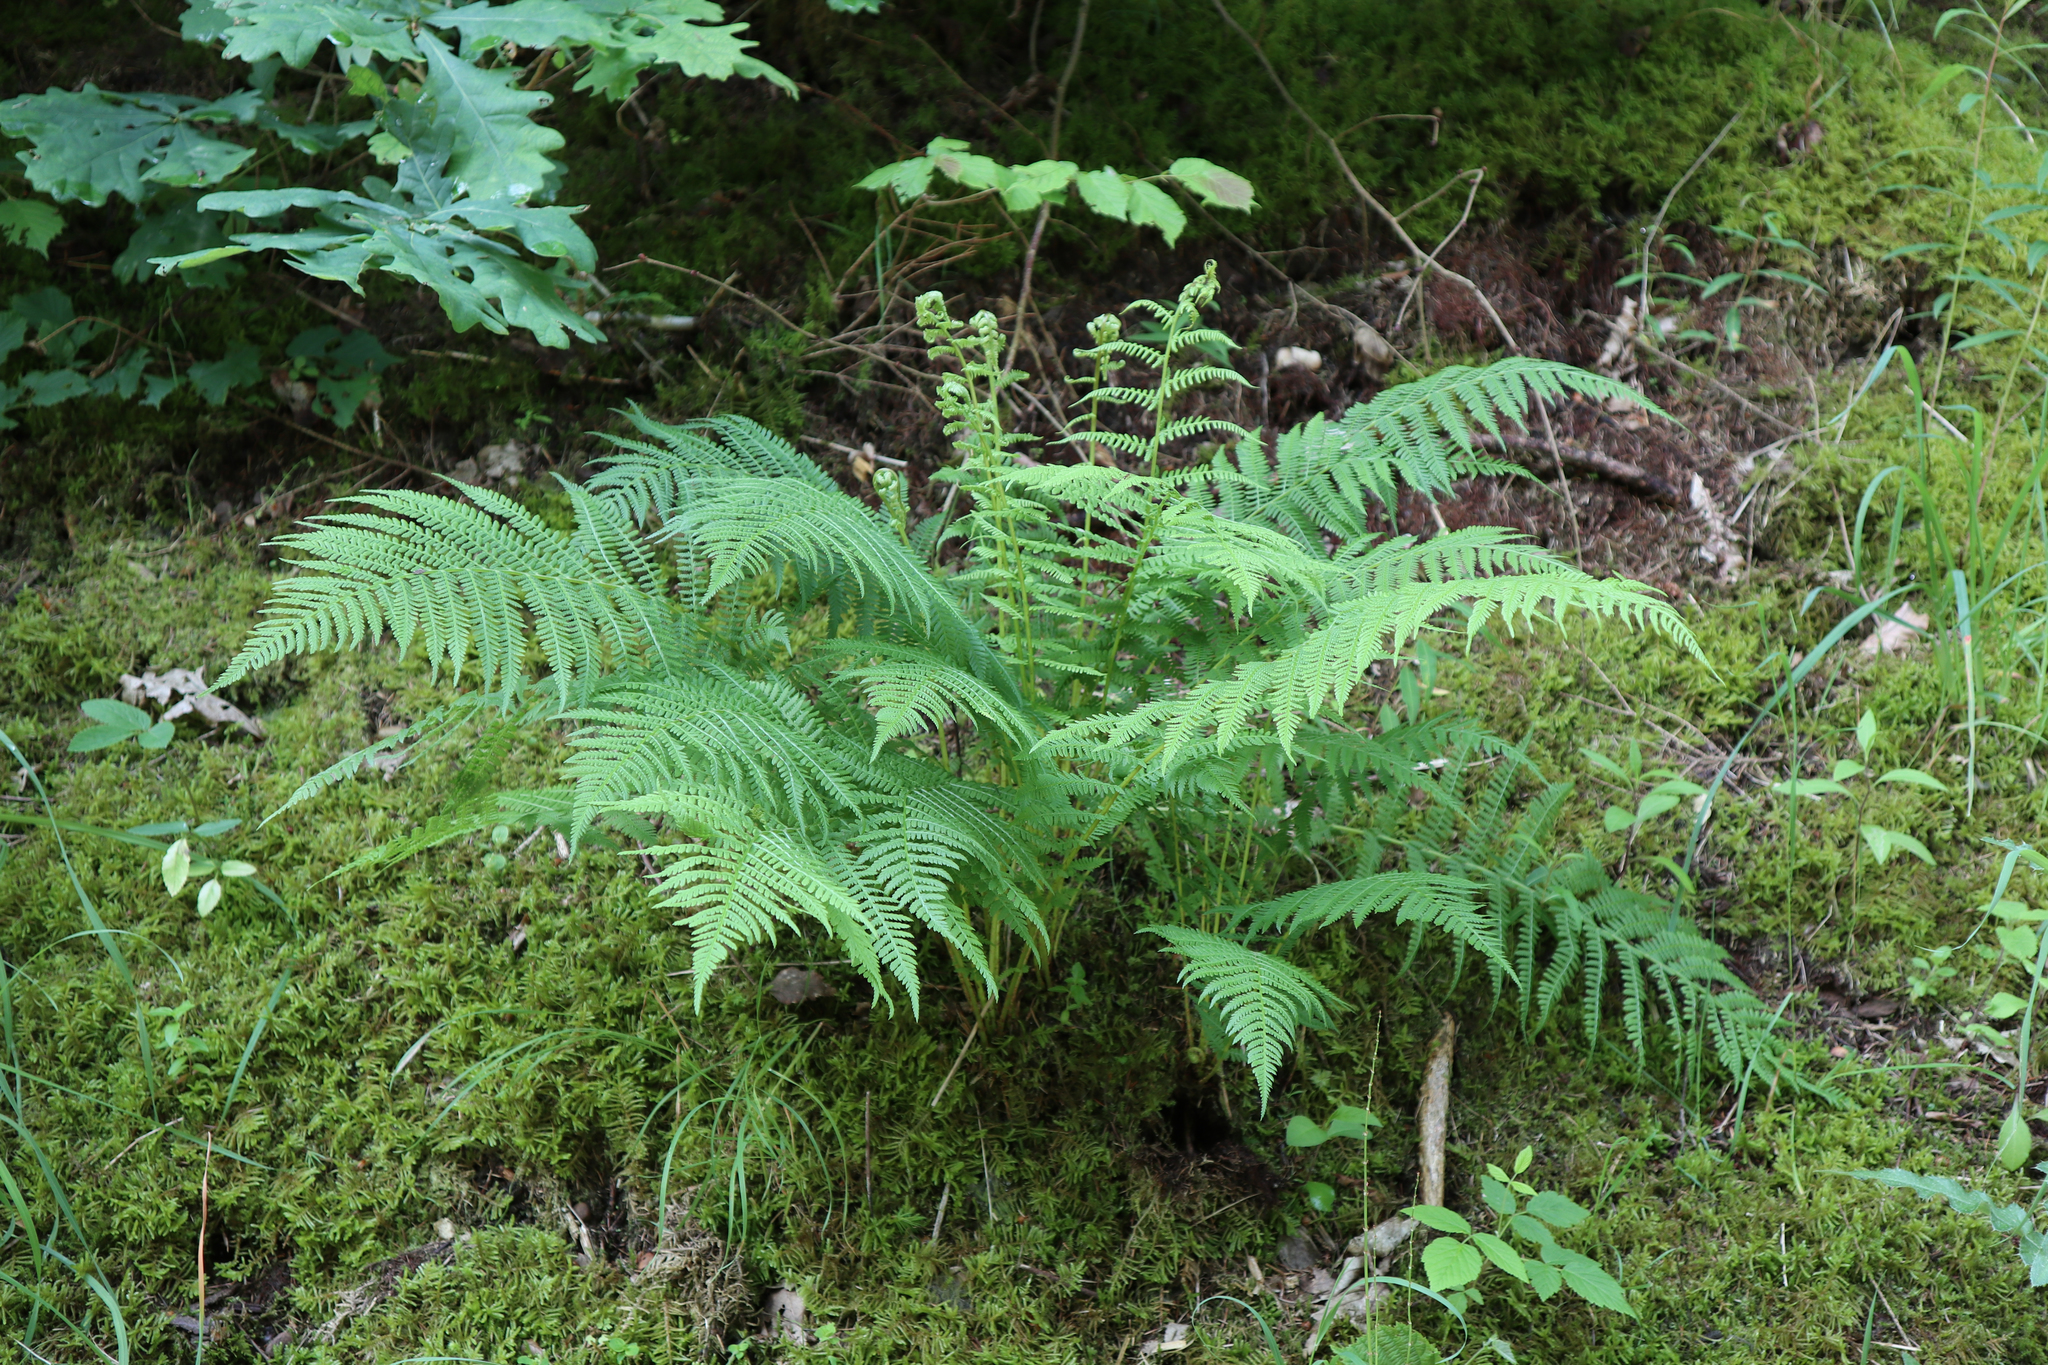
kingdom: Plantae
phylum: Tracheophyta
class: Polypodiopsida
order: Polypodiales
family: Athyriaceae
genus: Athyrium
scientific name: Athyrium filix-femina
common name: Lady fern
